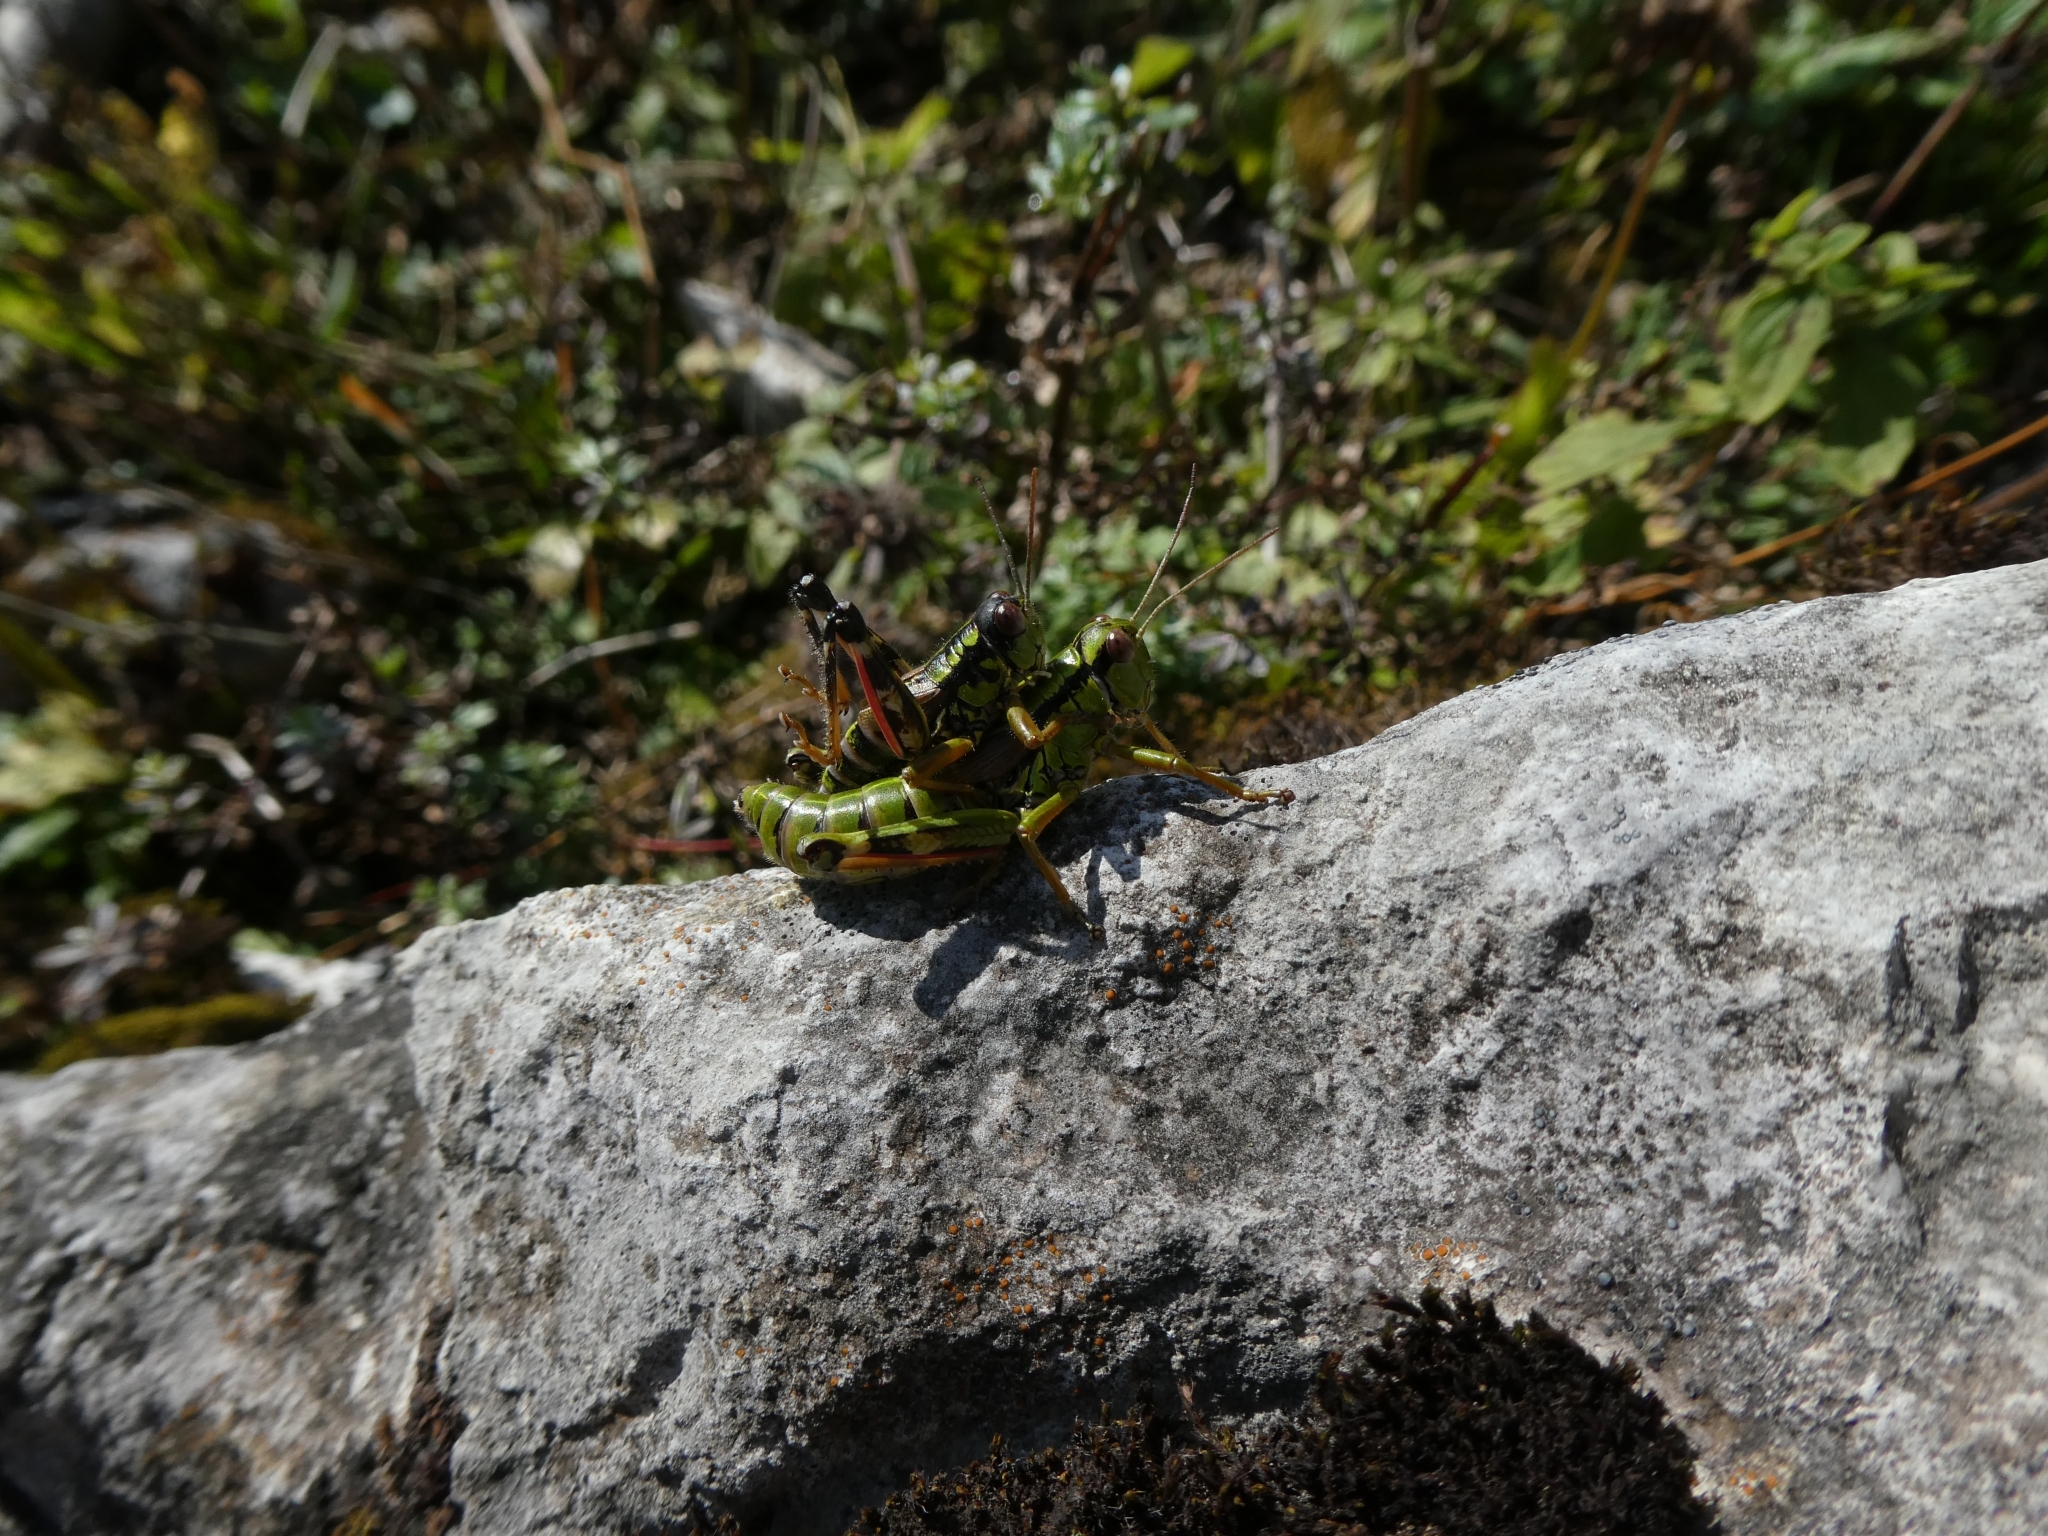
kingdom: Animalia
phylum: Arthropoda
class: Insecta
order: Orthoptera
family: Acrididae
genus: Miramella
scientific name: Miramella alpina
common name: Green mountain grasshopper
